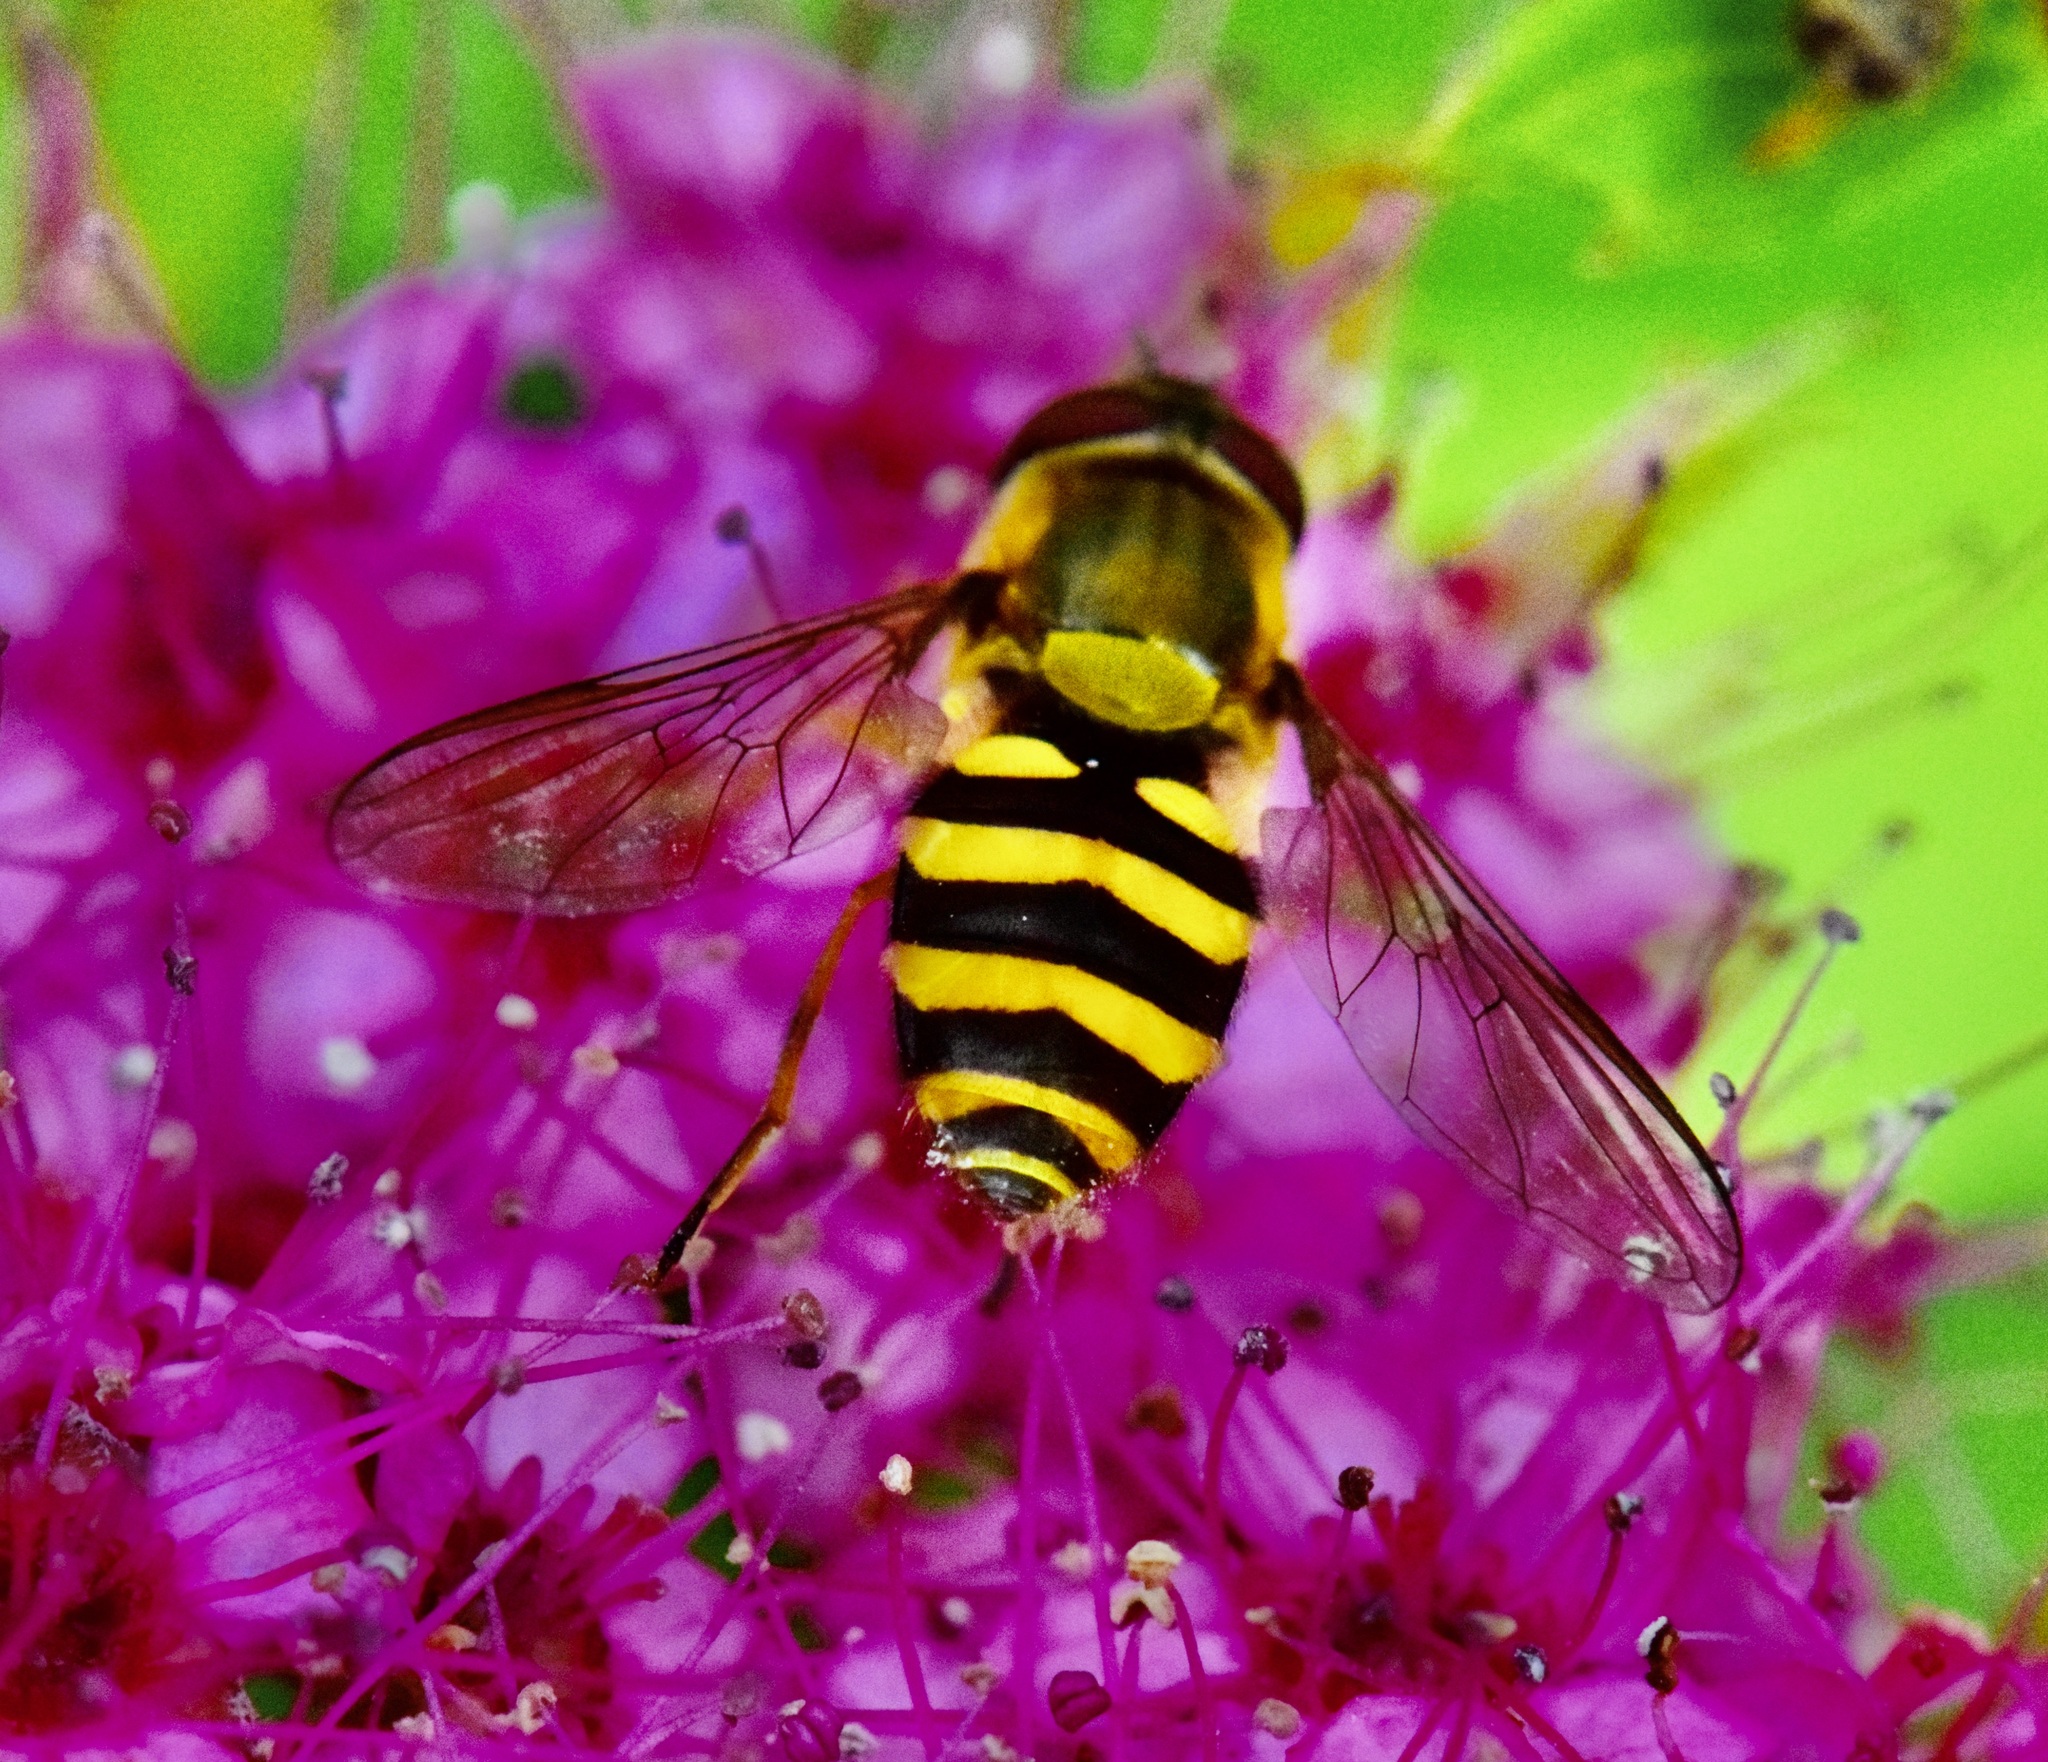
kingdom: Animalia
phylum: Arthropoda
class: Insecta
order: Diptera
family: Syrphidae
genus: Syrphus
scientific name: Syrphus
